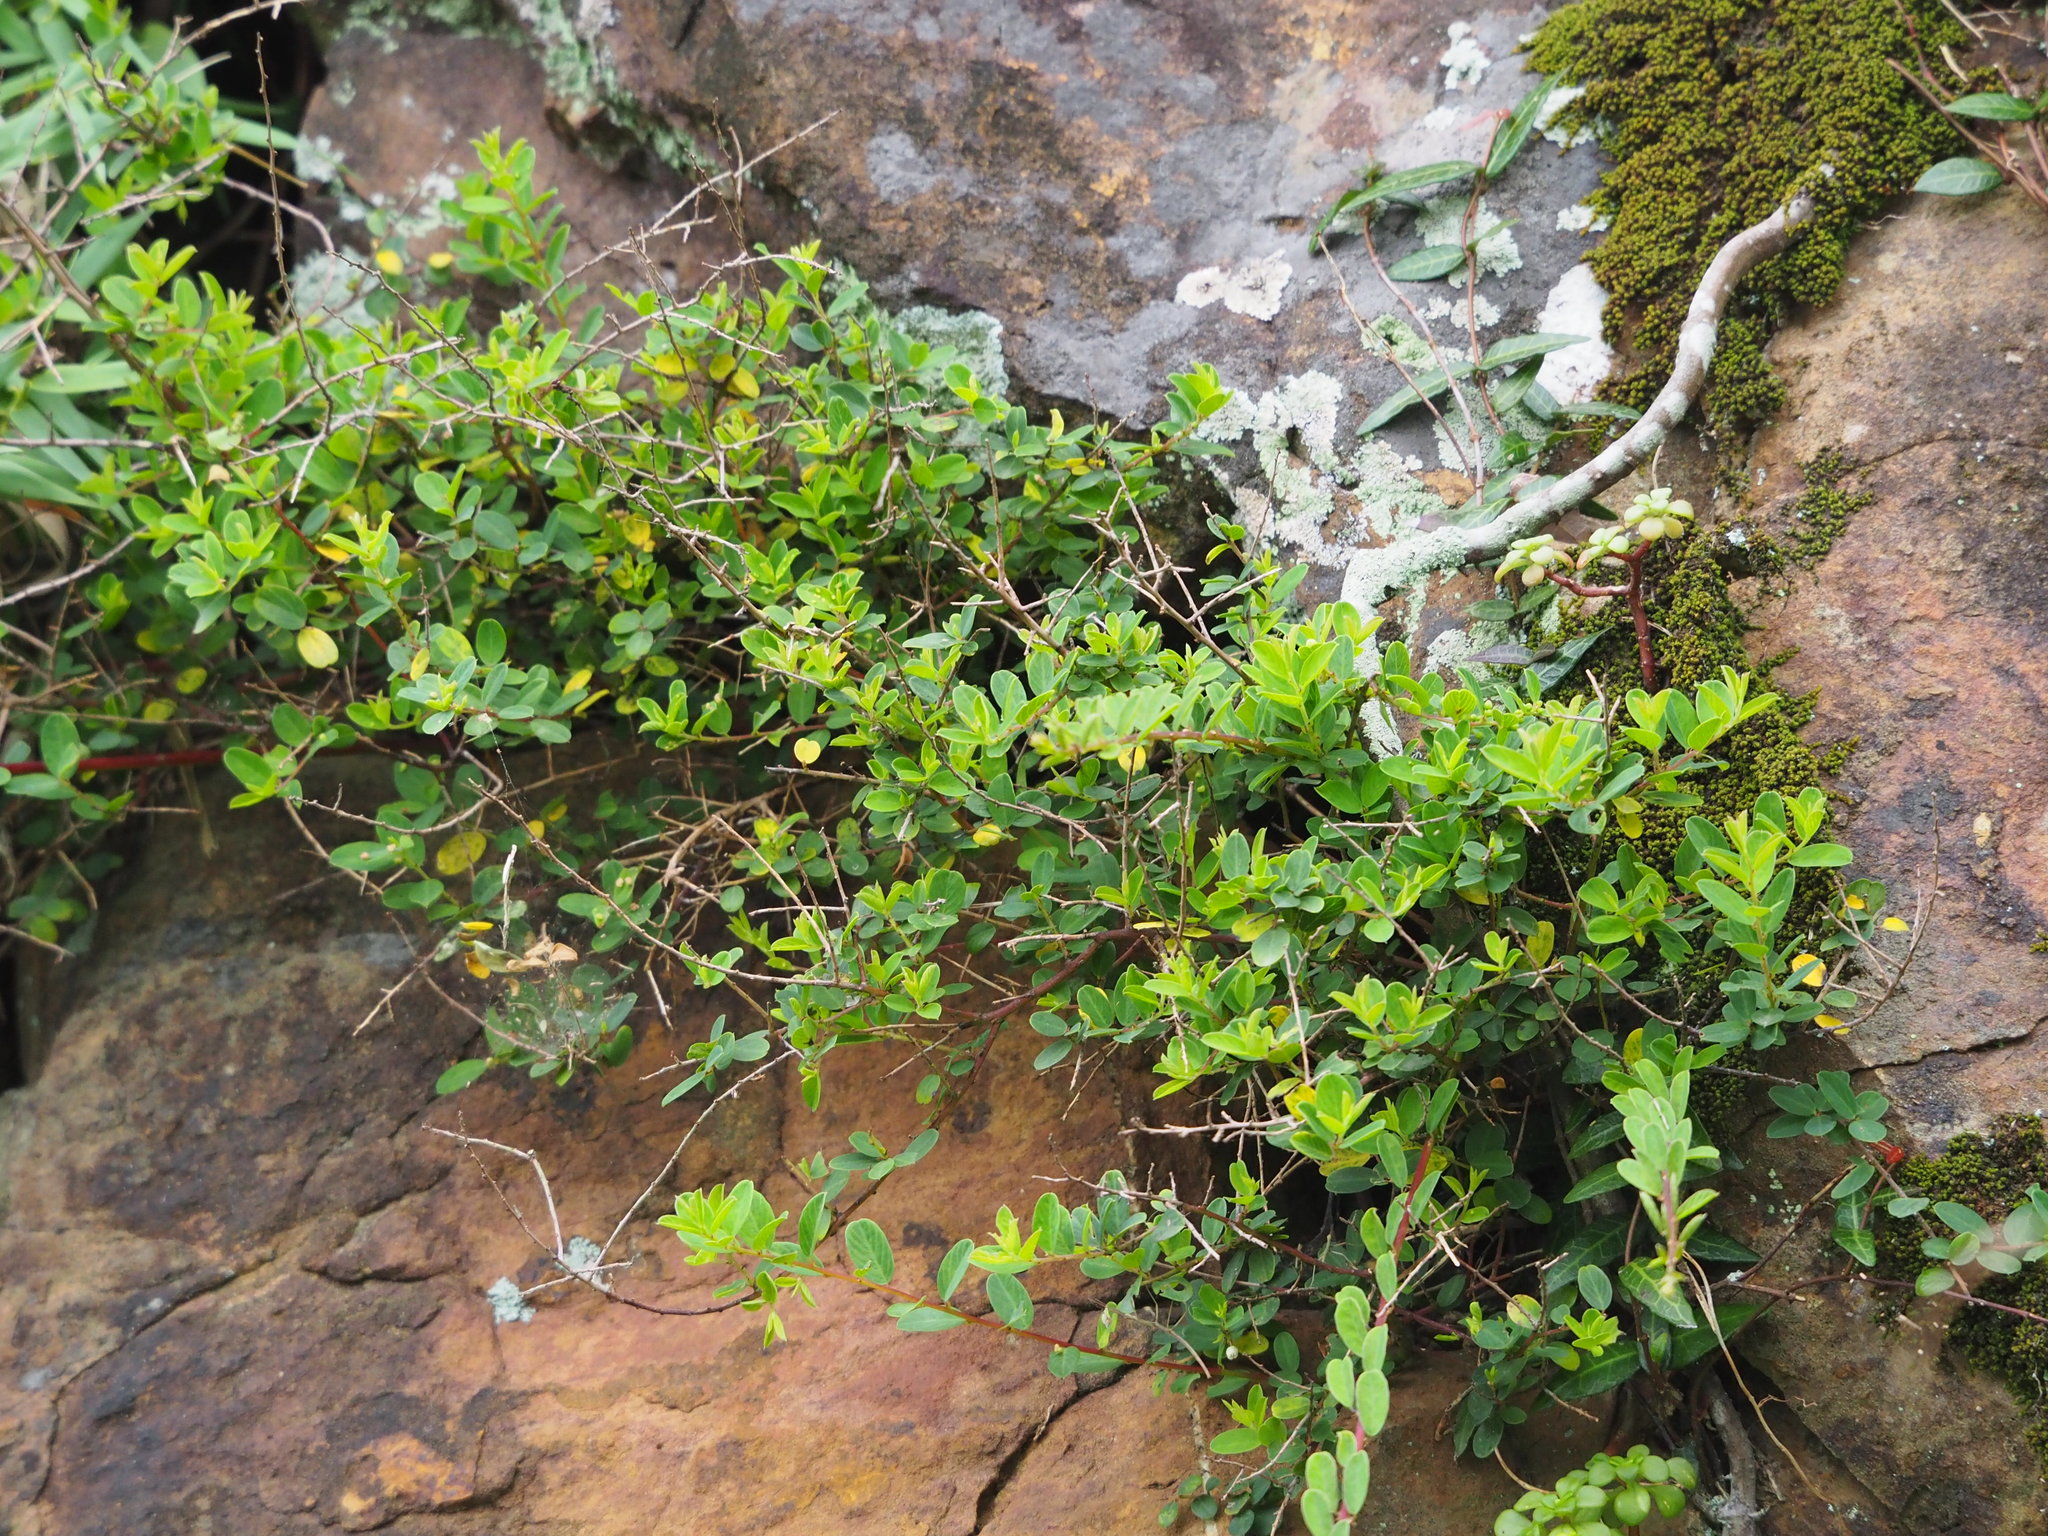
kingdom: Plantae
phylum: Tracheophyta
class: Magnoliopsida
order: Rosales
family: Rhamnaceae
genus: Berchemia
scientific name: Berchemia lineata
